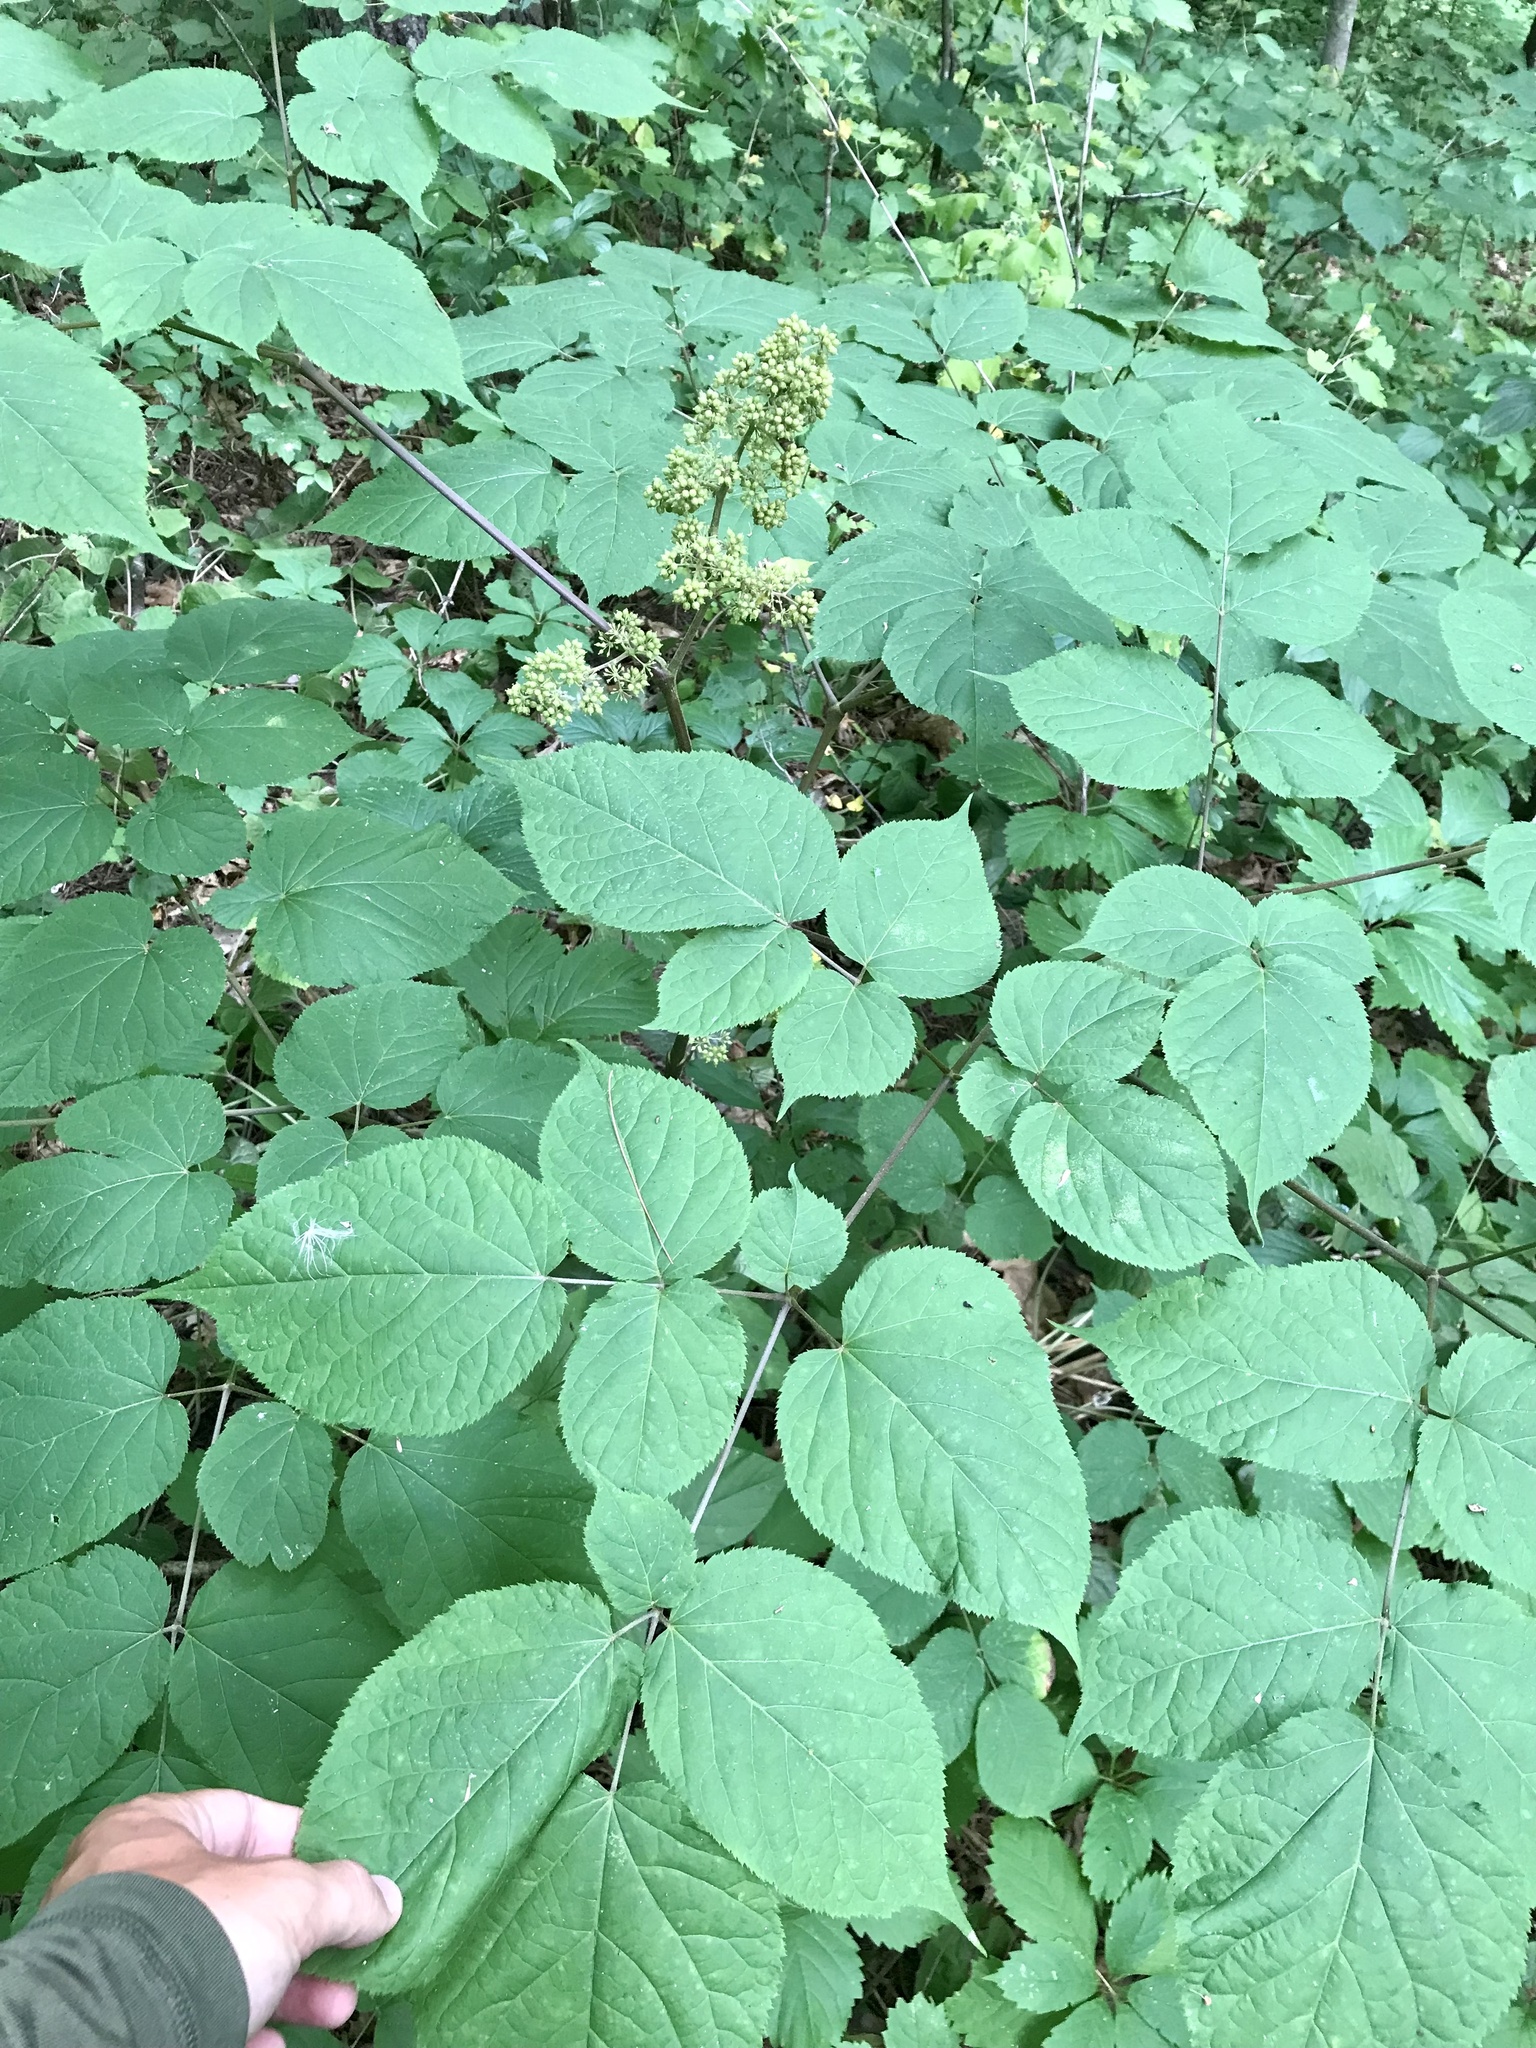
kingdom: Plantae
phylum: Tracheophyta
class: Magnoliopsida
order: Apiales
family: Araliaceae
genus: Aralia
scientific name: Aralia racemosa
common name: American-spikenard
